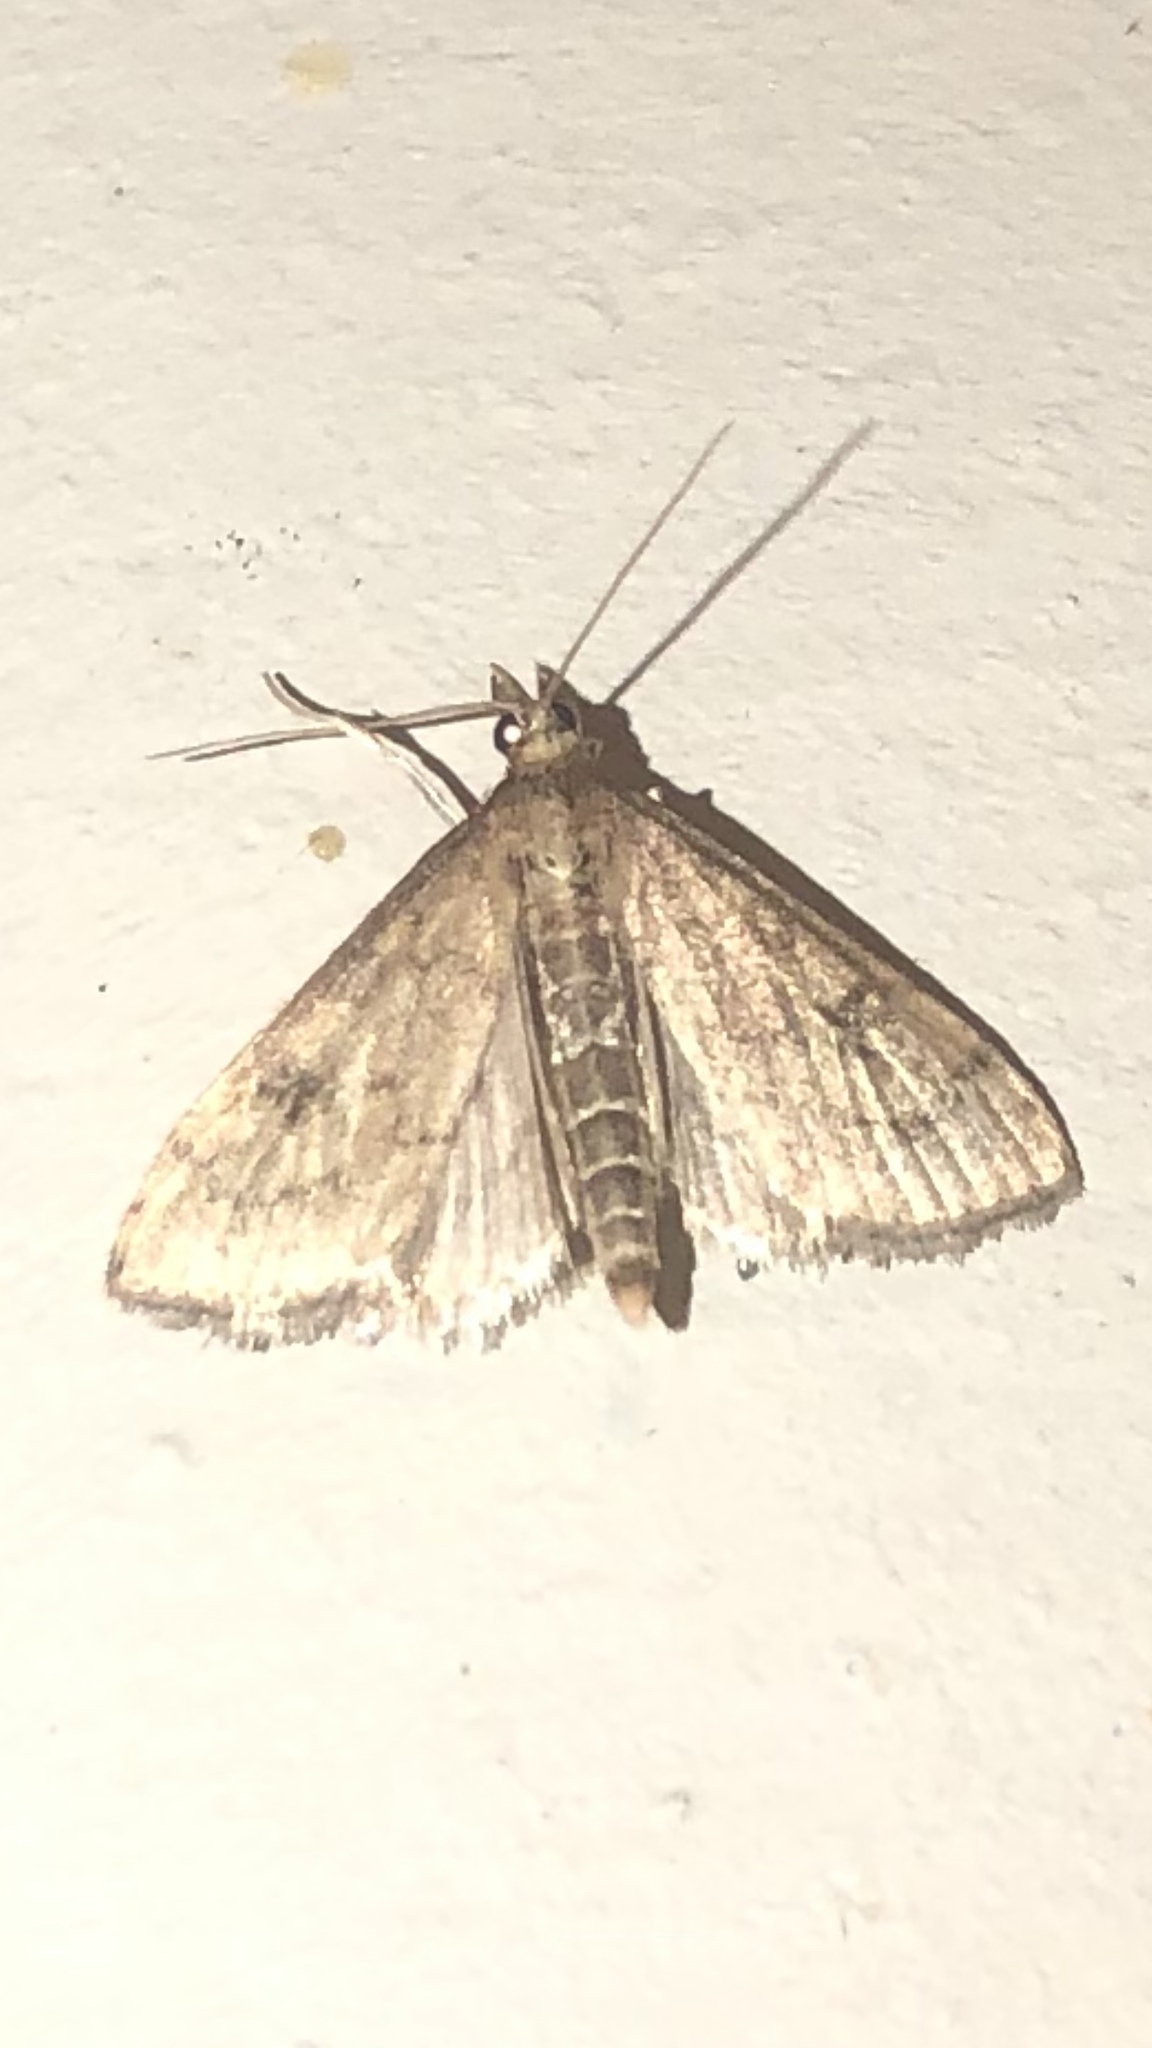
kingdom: Animalia
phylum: Arthropoda
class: Insecta
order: Lepidoptera
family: Crambidae
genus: Udea
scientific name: Udea rubigalis
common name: Celery leaftier moth
